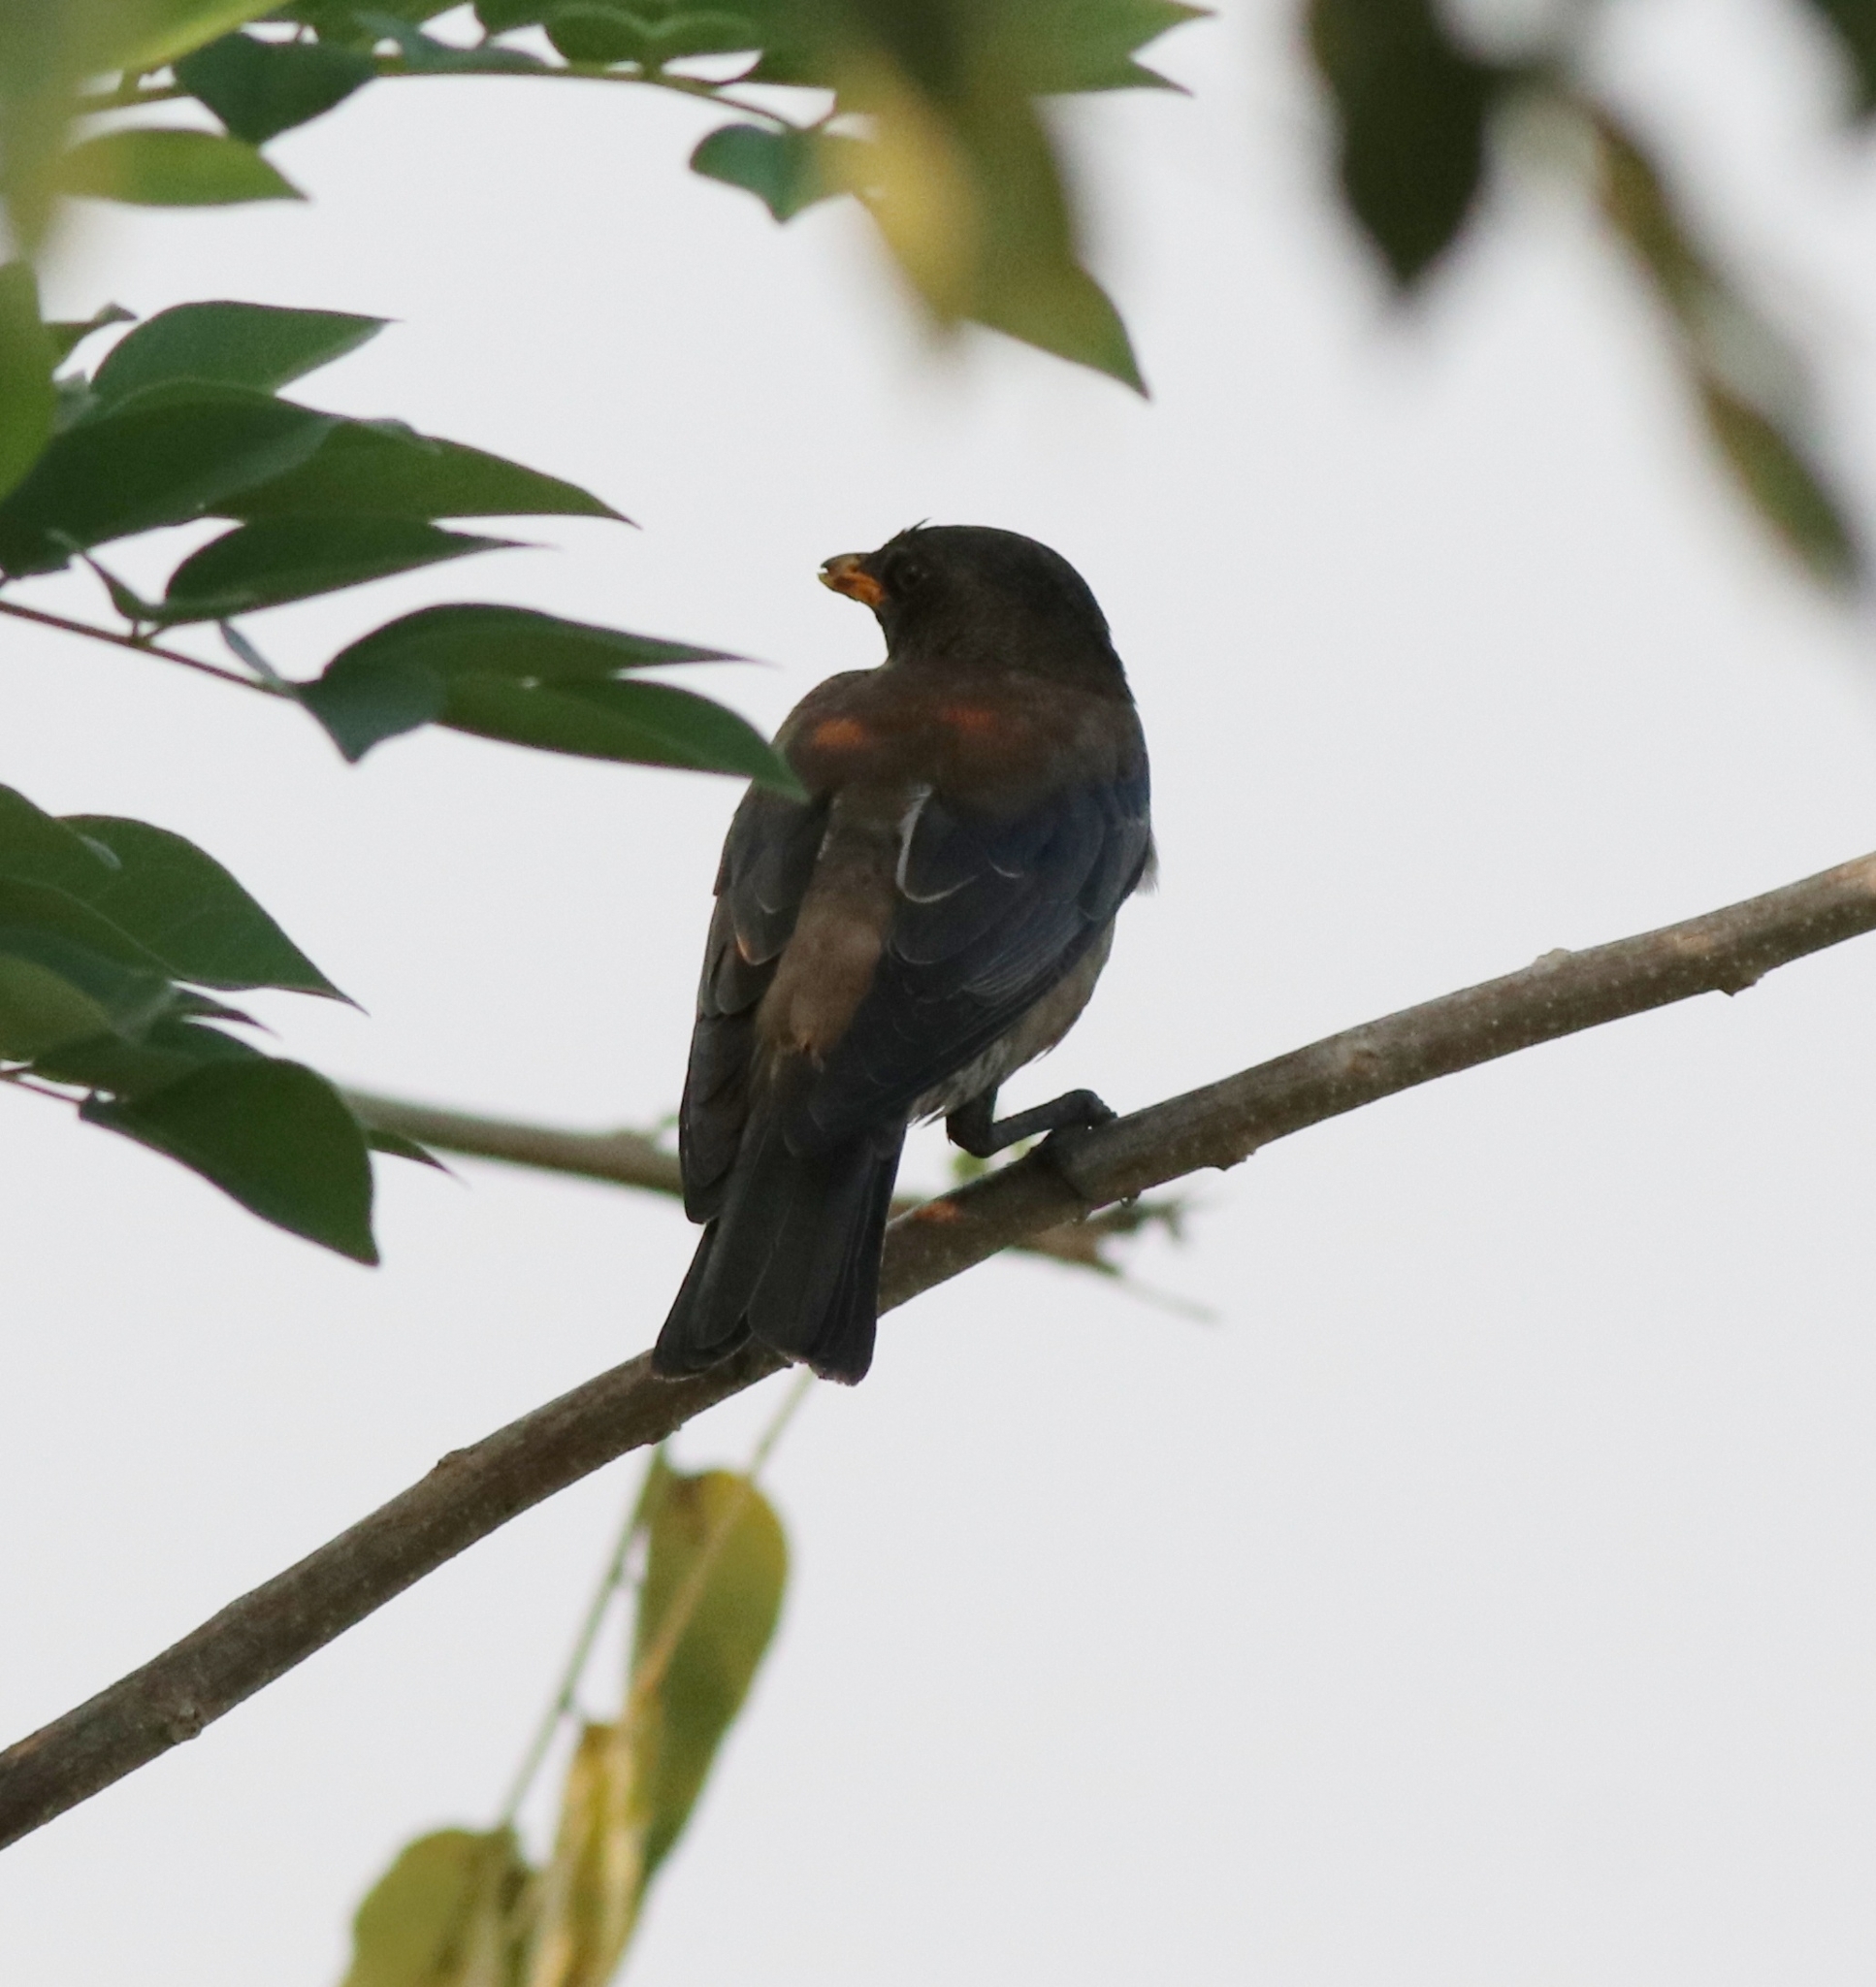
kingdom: Animalia
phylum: Chordata
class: Aves
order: Passeriformes
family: Sturnidae
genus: Pastor
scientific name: Pastor roseus
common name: Rosy starling
